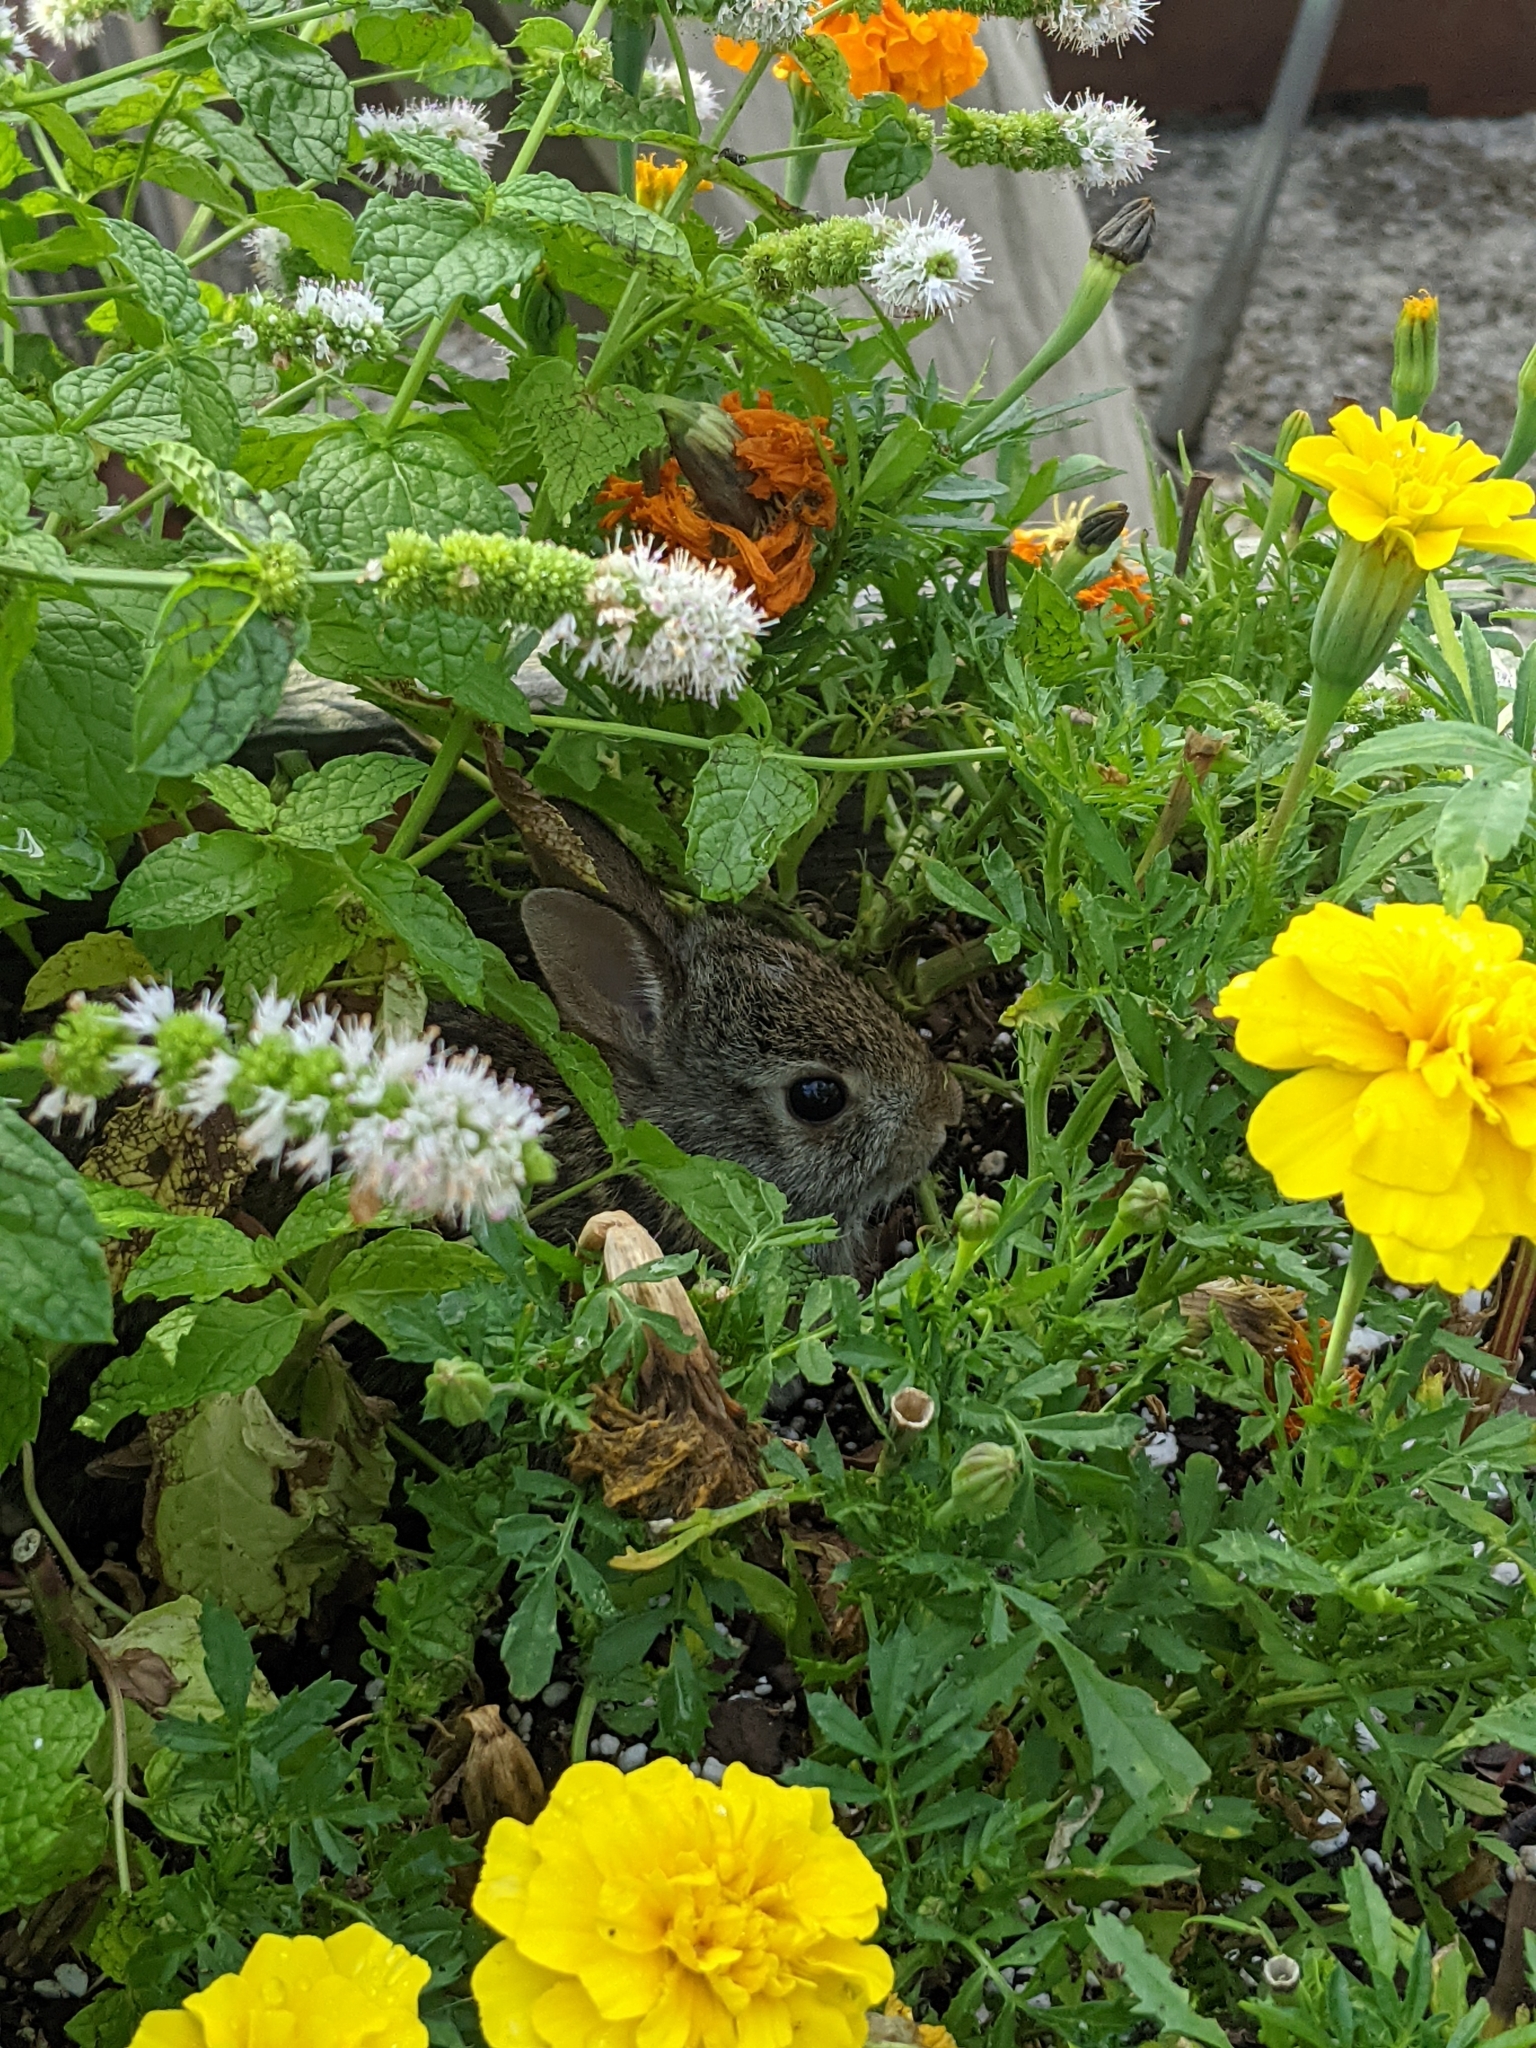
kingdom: Animalia
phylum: Chordata
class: Mammalia
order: Lagomorpha
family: Leporidae
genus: Sylvilagus
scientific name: Sylvilagus floridanus
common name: Eastern cottontail
